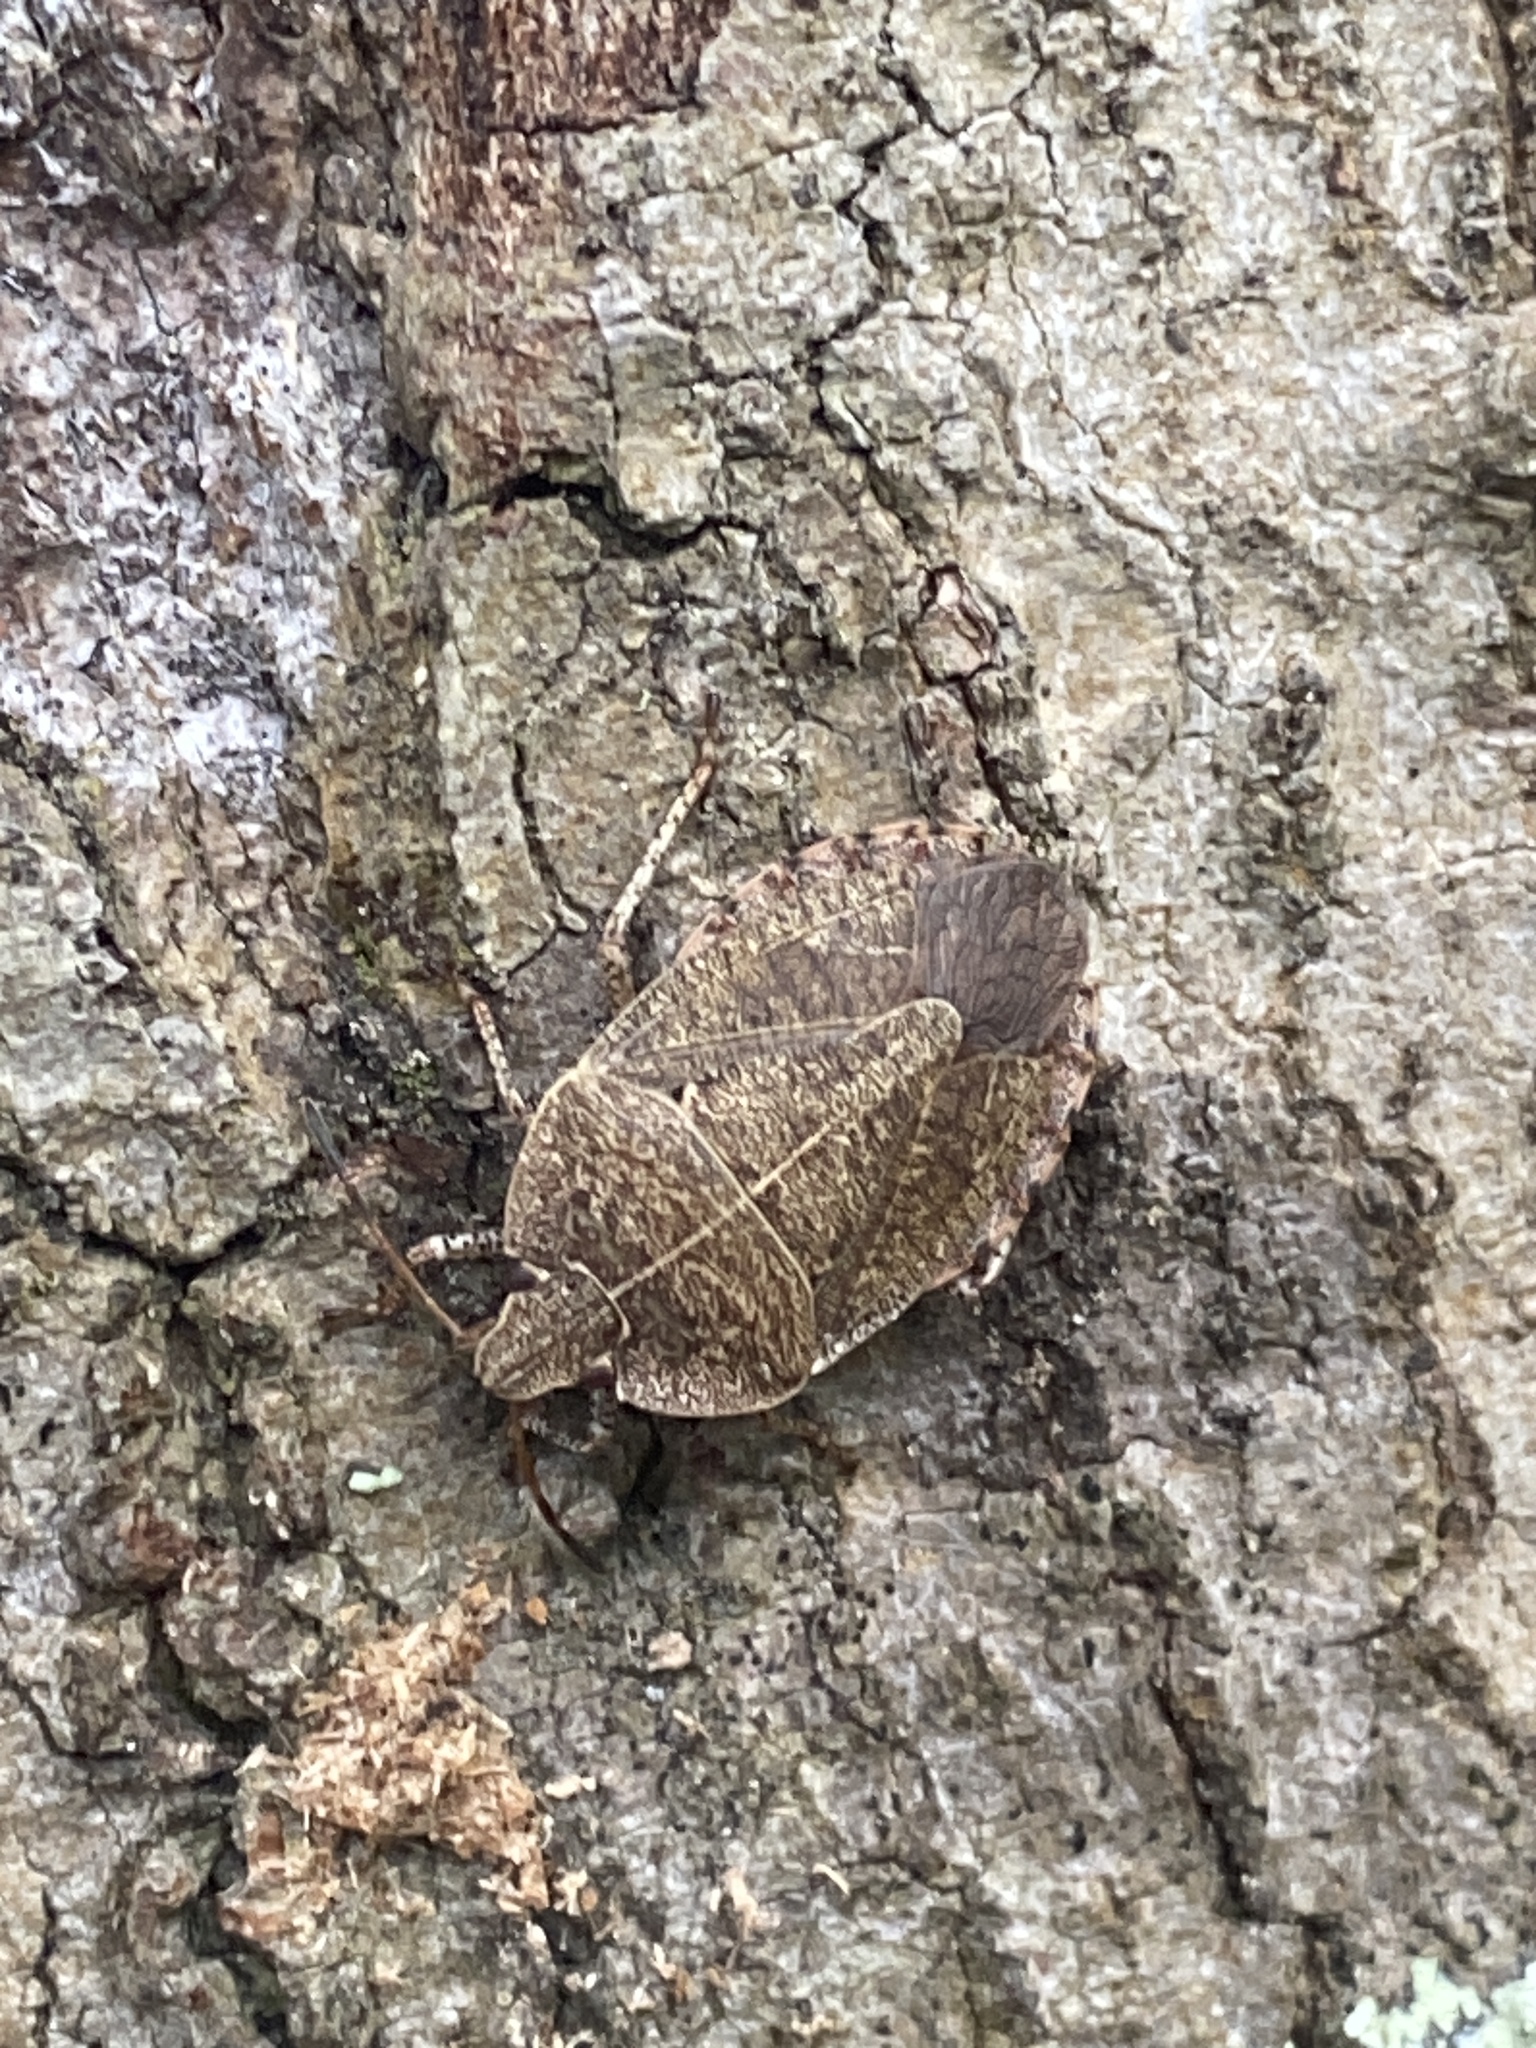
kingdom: Animalia
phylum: Arthropoda
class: Insecta
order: Hemiptera
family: Pentatomidae
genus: Menecles
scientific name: Menecles insertus
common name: Elf shoe stink bug
